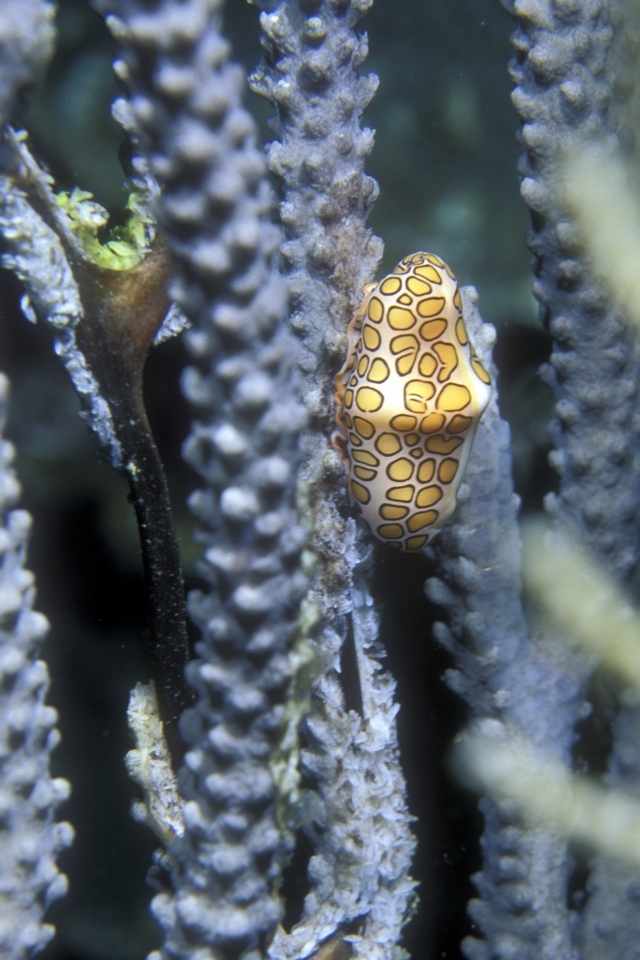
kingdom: Animalia
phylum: Mollusca
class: Gastropoda
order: Littorinimorpha
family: Ovulidae
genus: Cyphoma
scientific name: Cyphoma gibbosum
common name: Flamingo tongue
